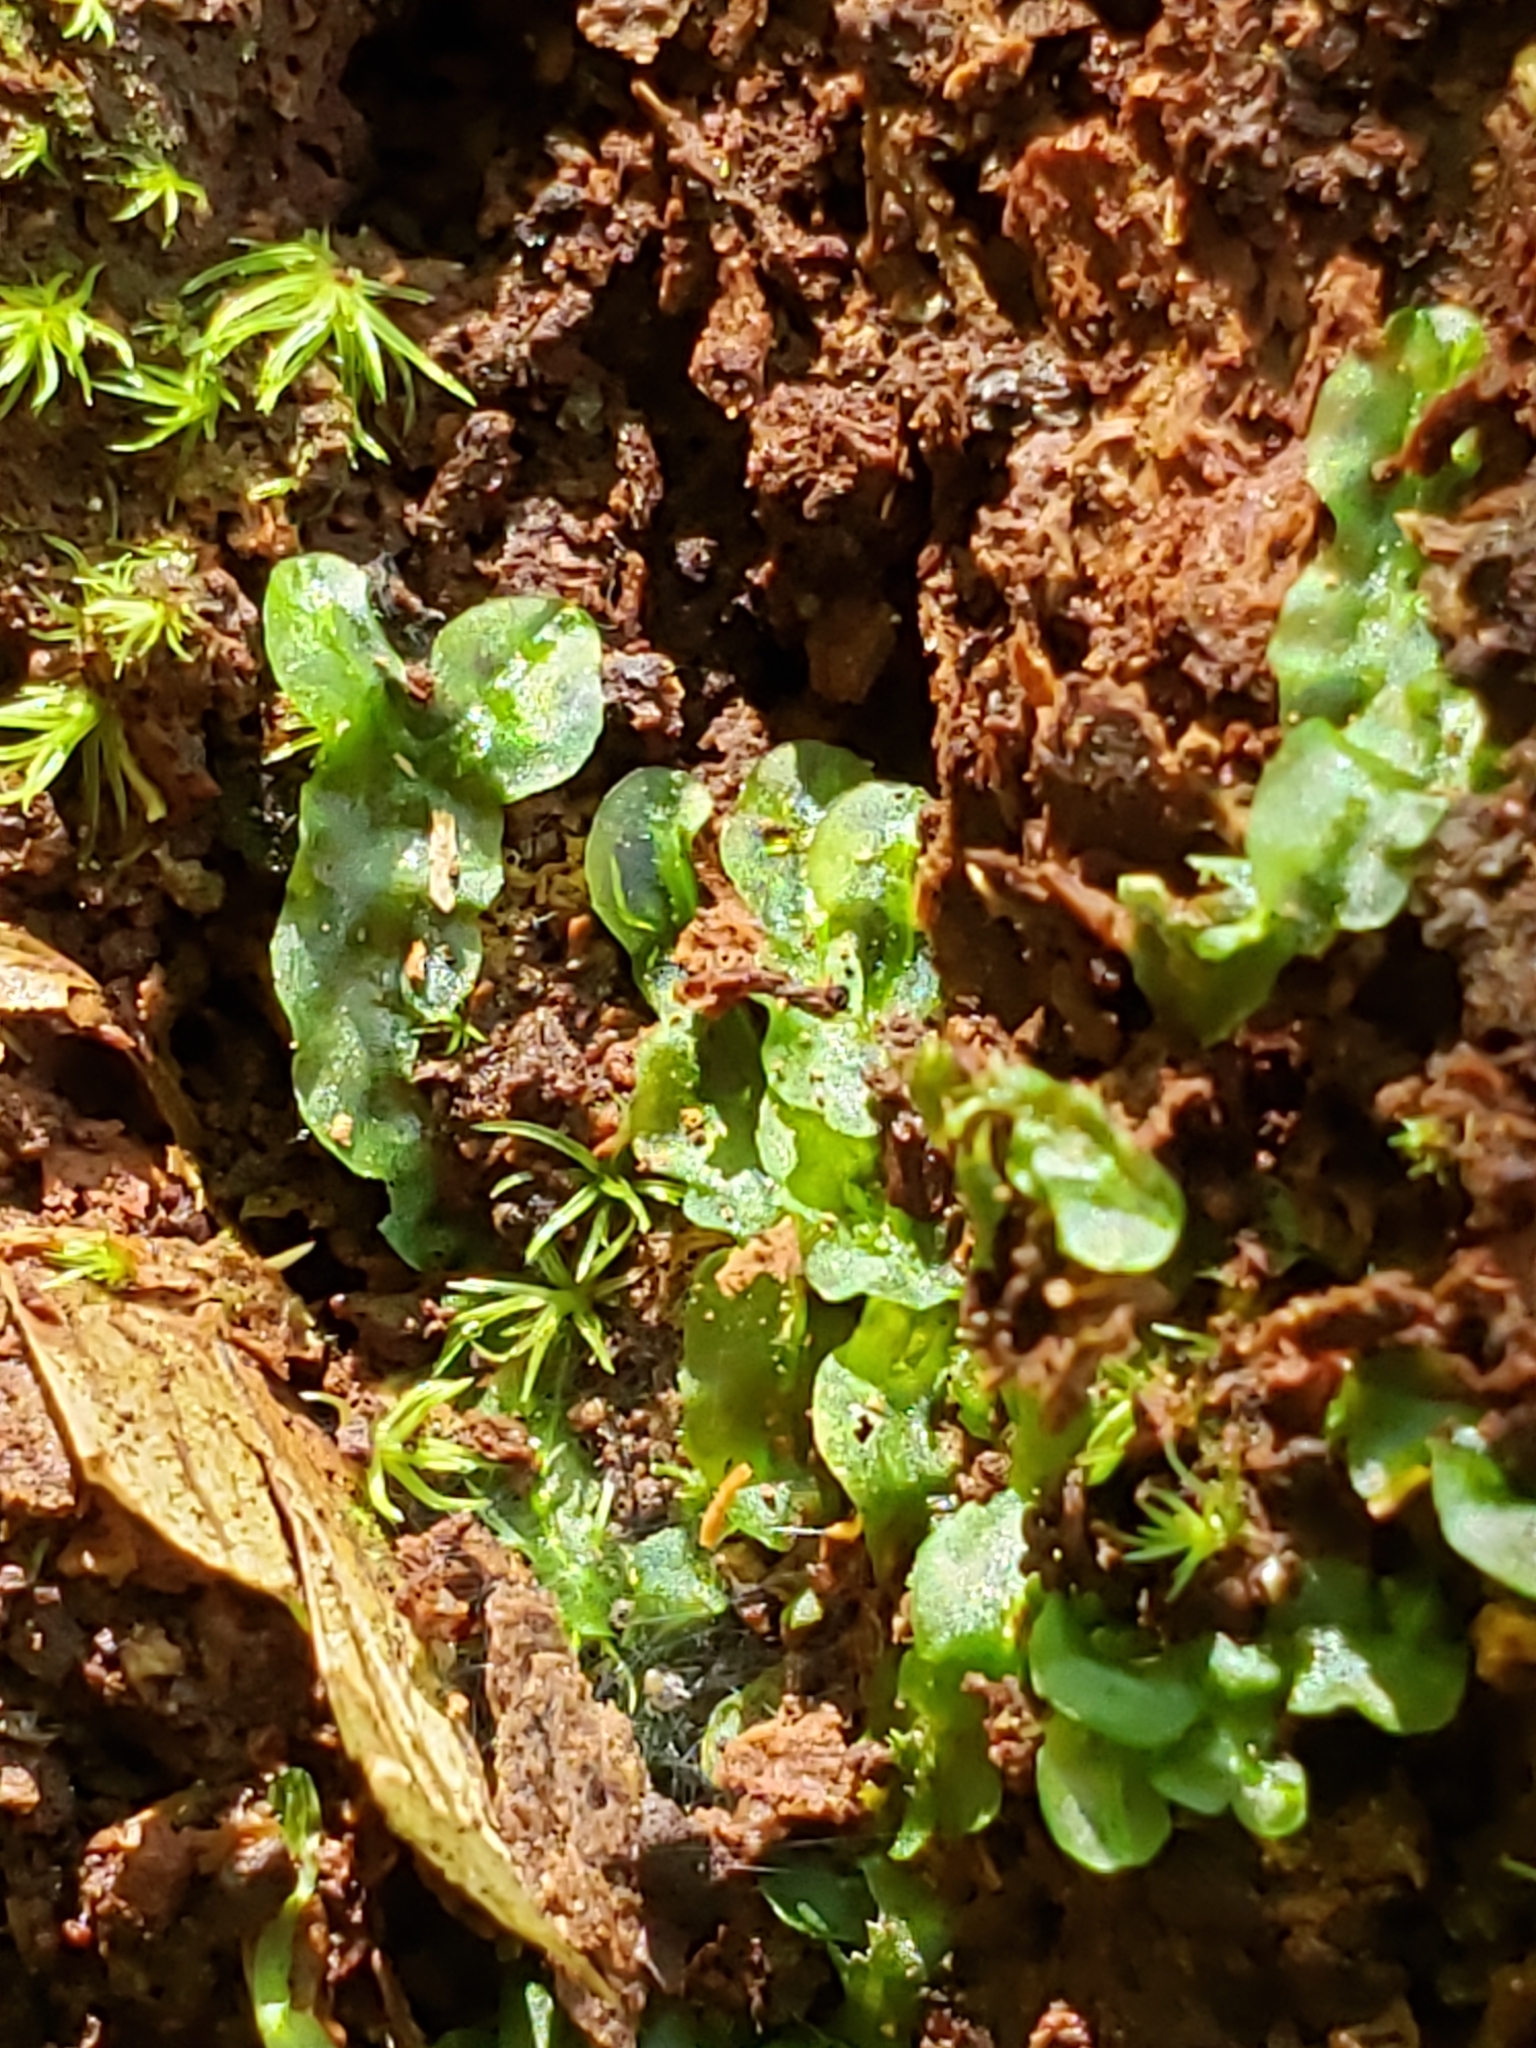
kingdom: Plantae
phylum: Marchantiophyta
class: Jungermanniopsida
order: Pallaviciniales
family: Pallaviciniaceae
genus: Pallavicinia
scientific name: Pallavicinia lyellii
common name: Veilwort
